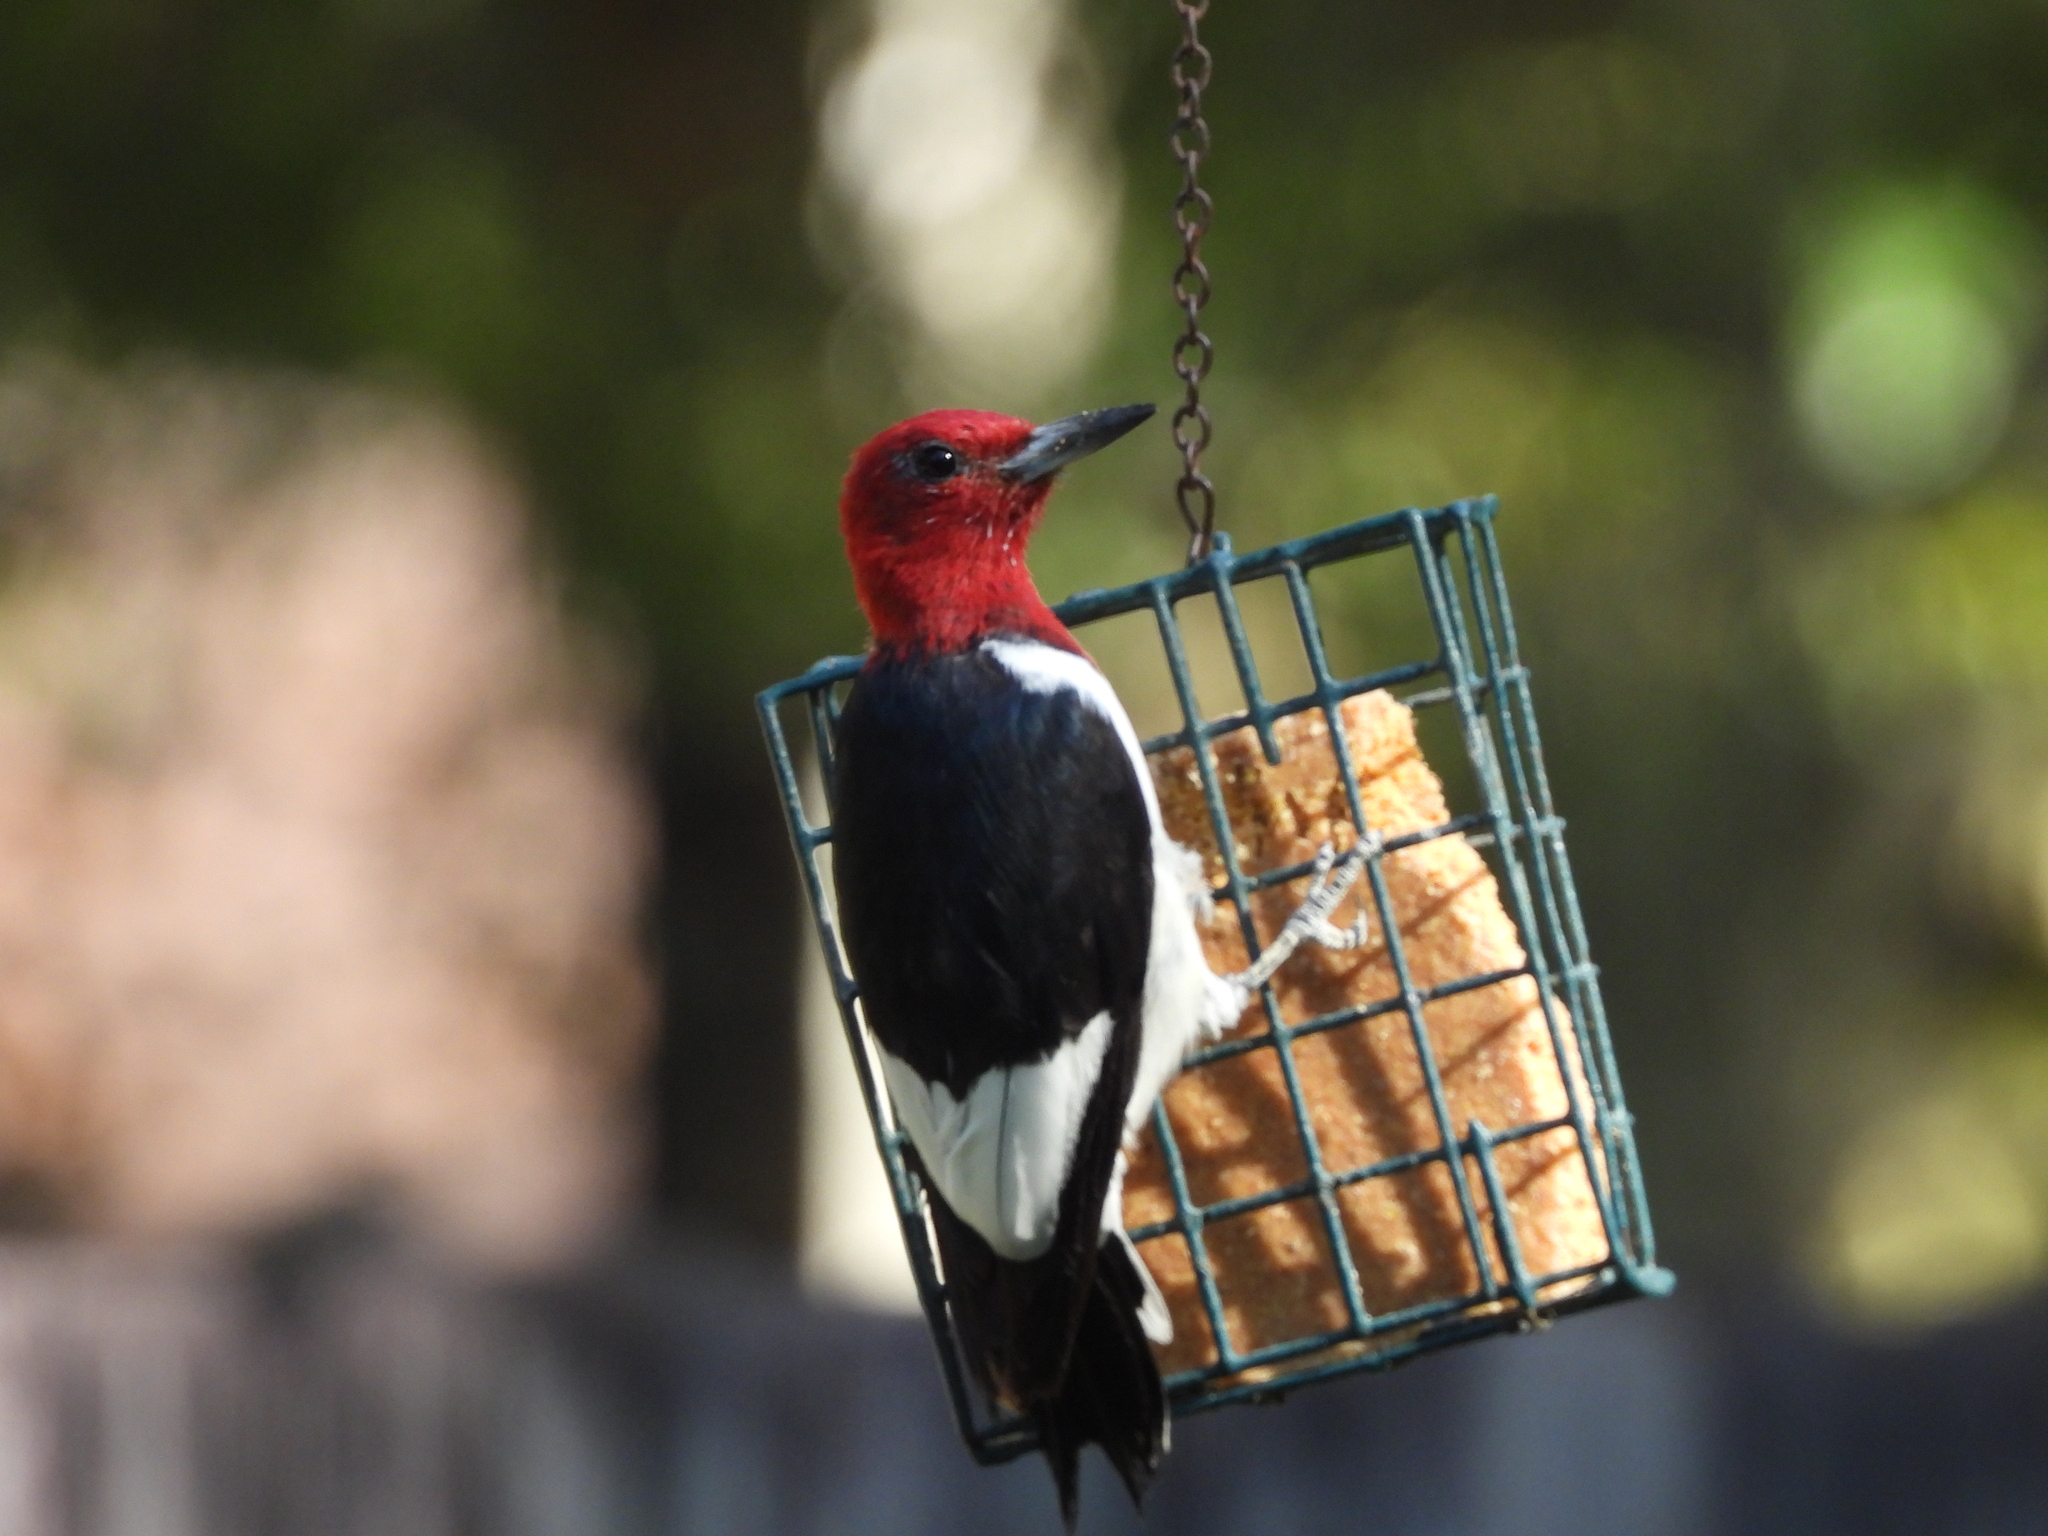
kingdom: Animalia
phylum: Chordata
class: Aves
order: Piciformes
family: Picidae
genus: Melanerpes
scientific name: Melanerpes erythrocephalus
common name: Red-headed woodpecker
